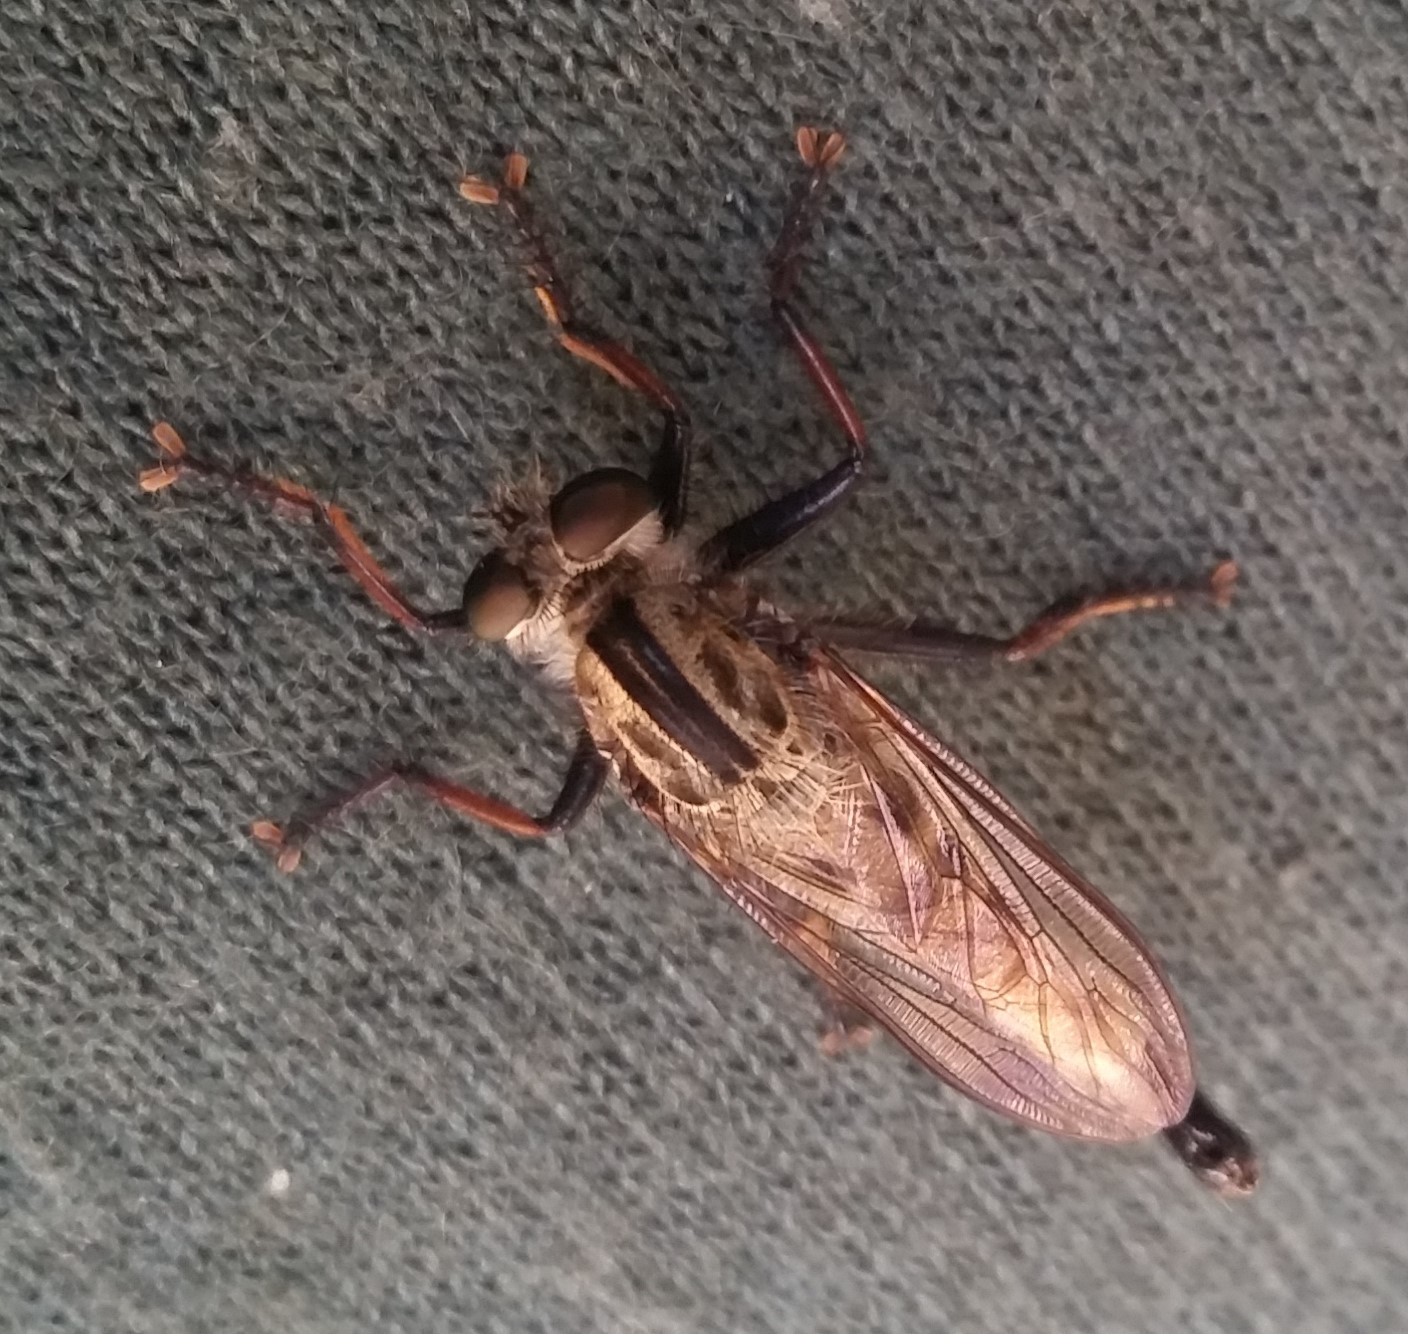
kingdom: Animalia
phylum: Arthropoda
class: Insecta
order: Diptera
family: Asilidae
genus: Efferia
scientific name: Efferia aestuans
